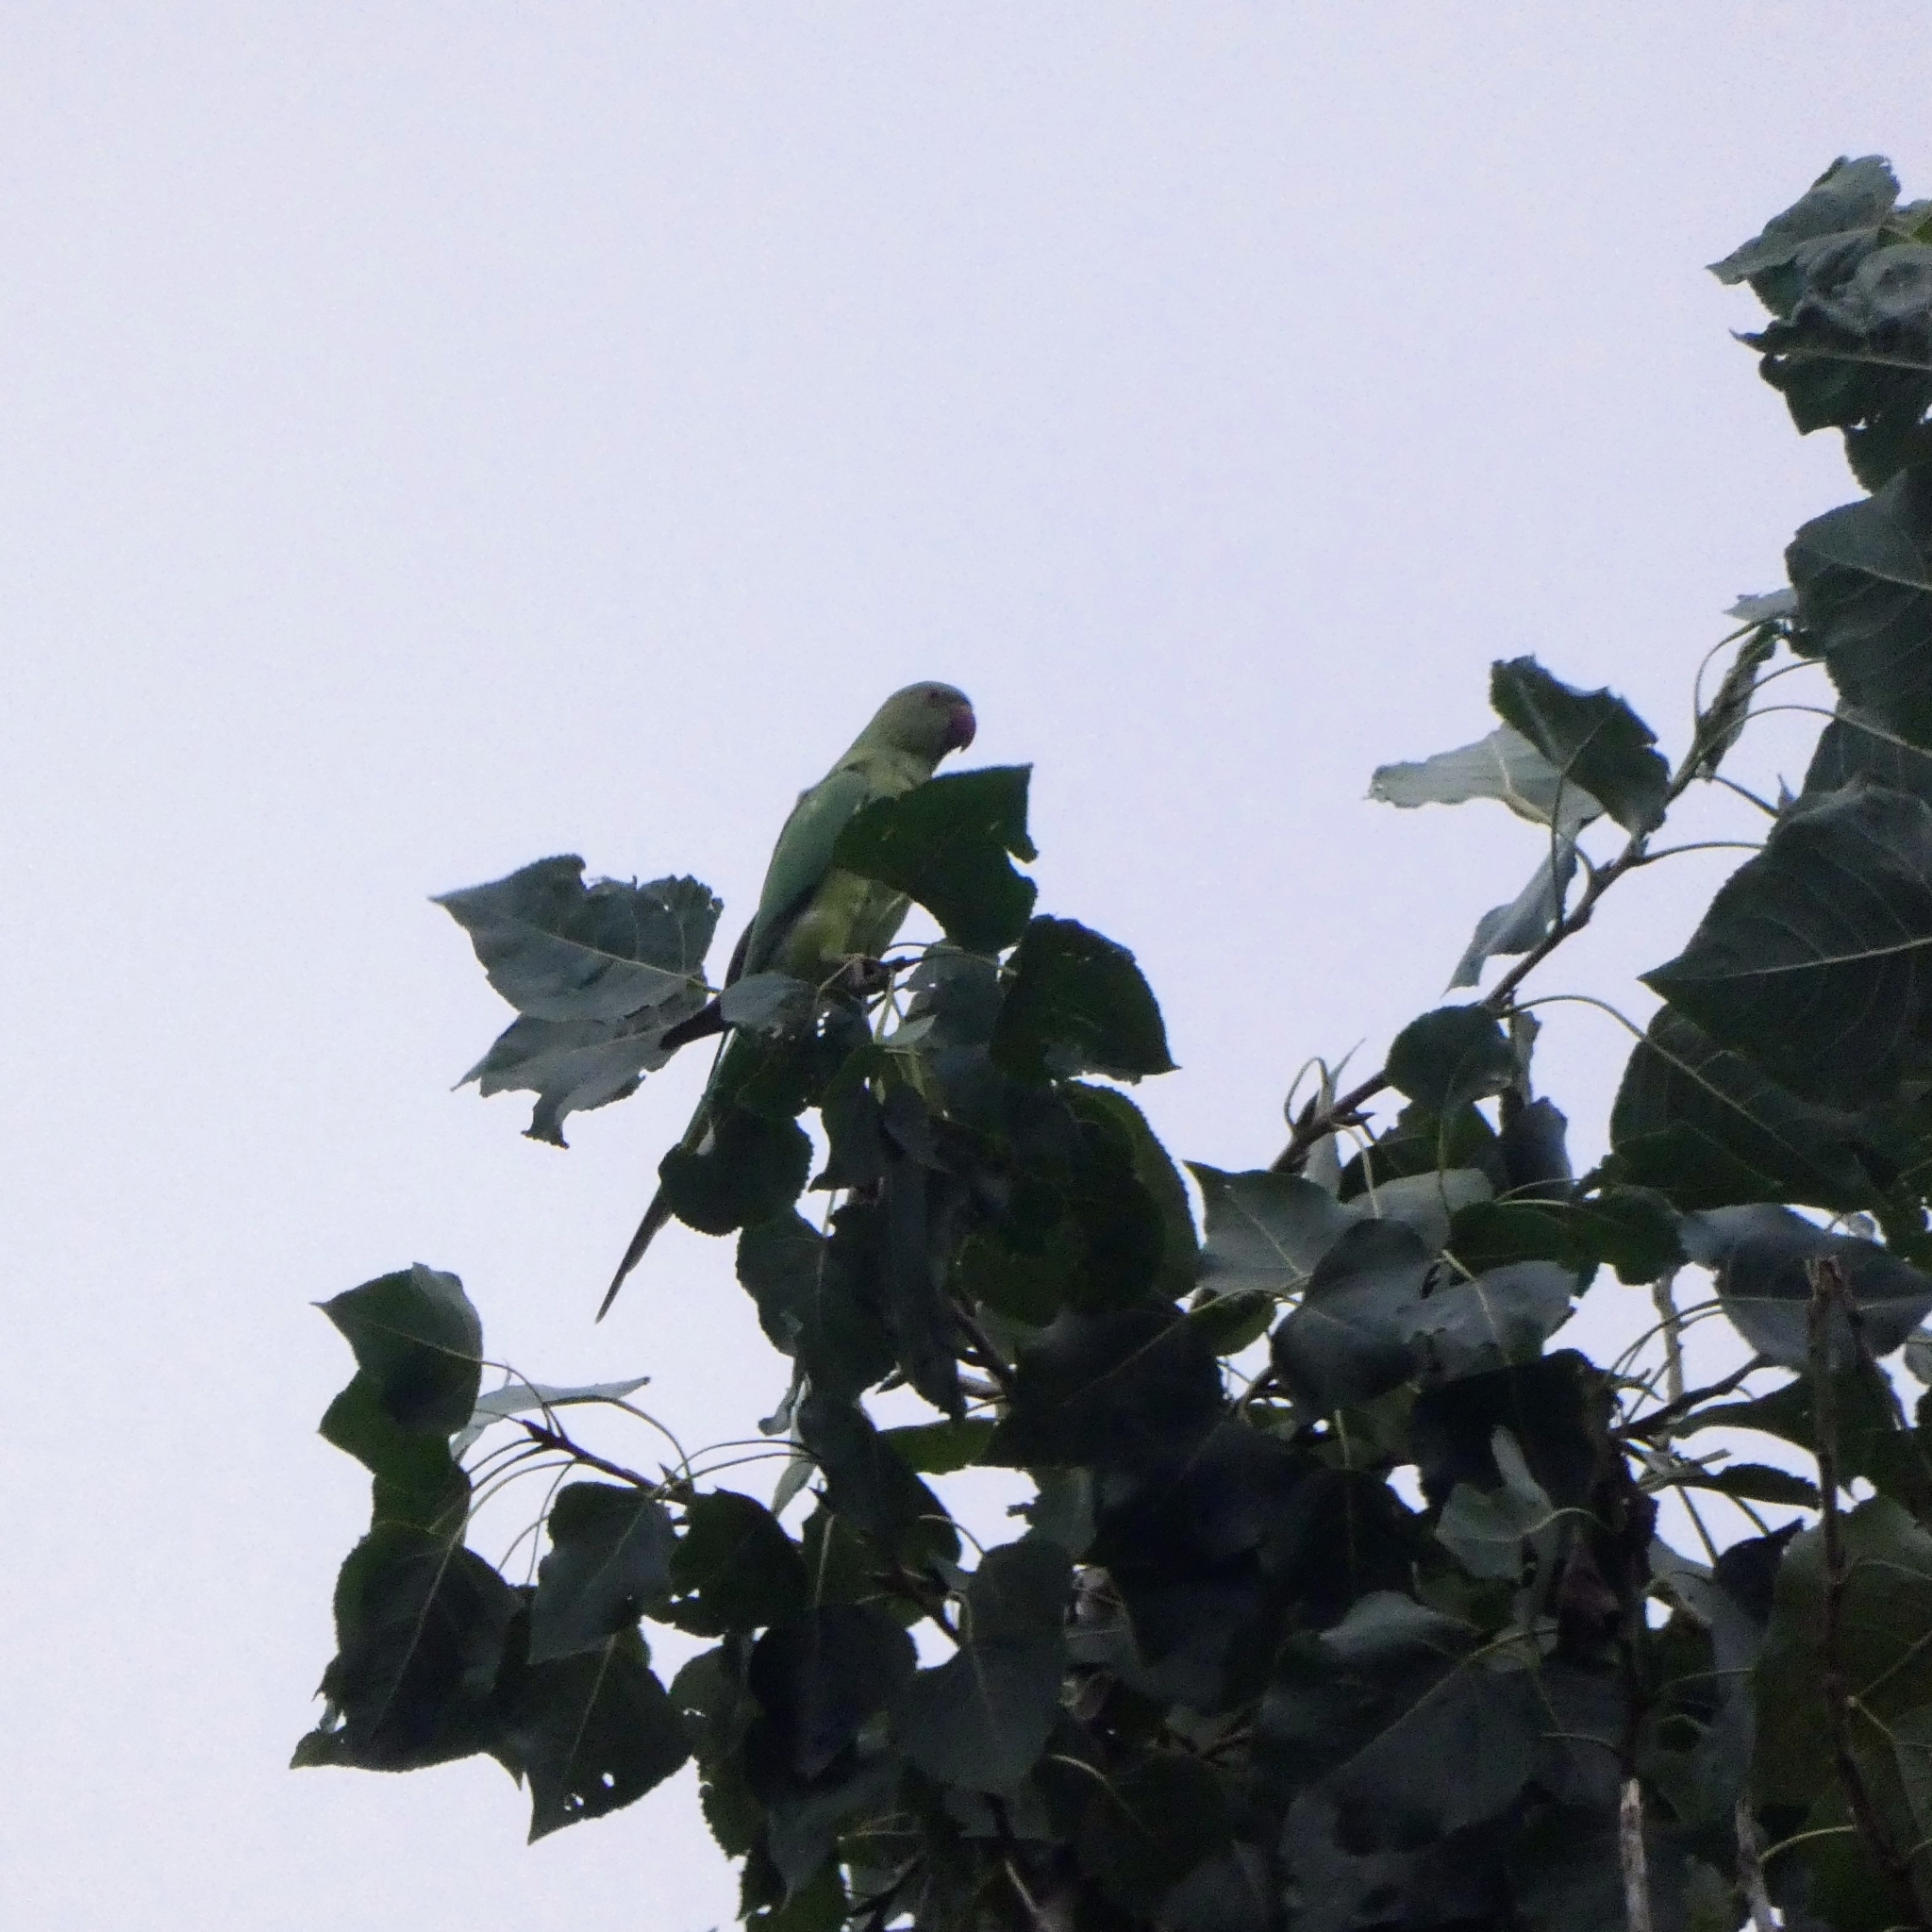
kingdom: Animalia
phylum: Chordata
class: Aves
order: Psittaciformes
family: Psittacidae
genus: Psittacula
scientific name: Psittacula krameri
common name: Rose-ringed parakeet
